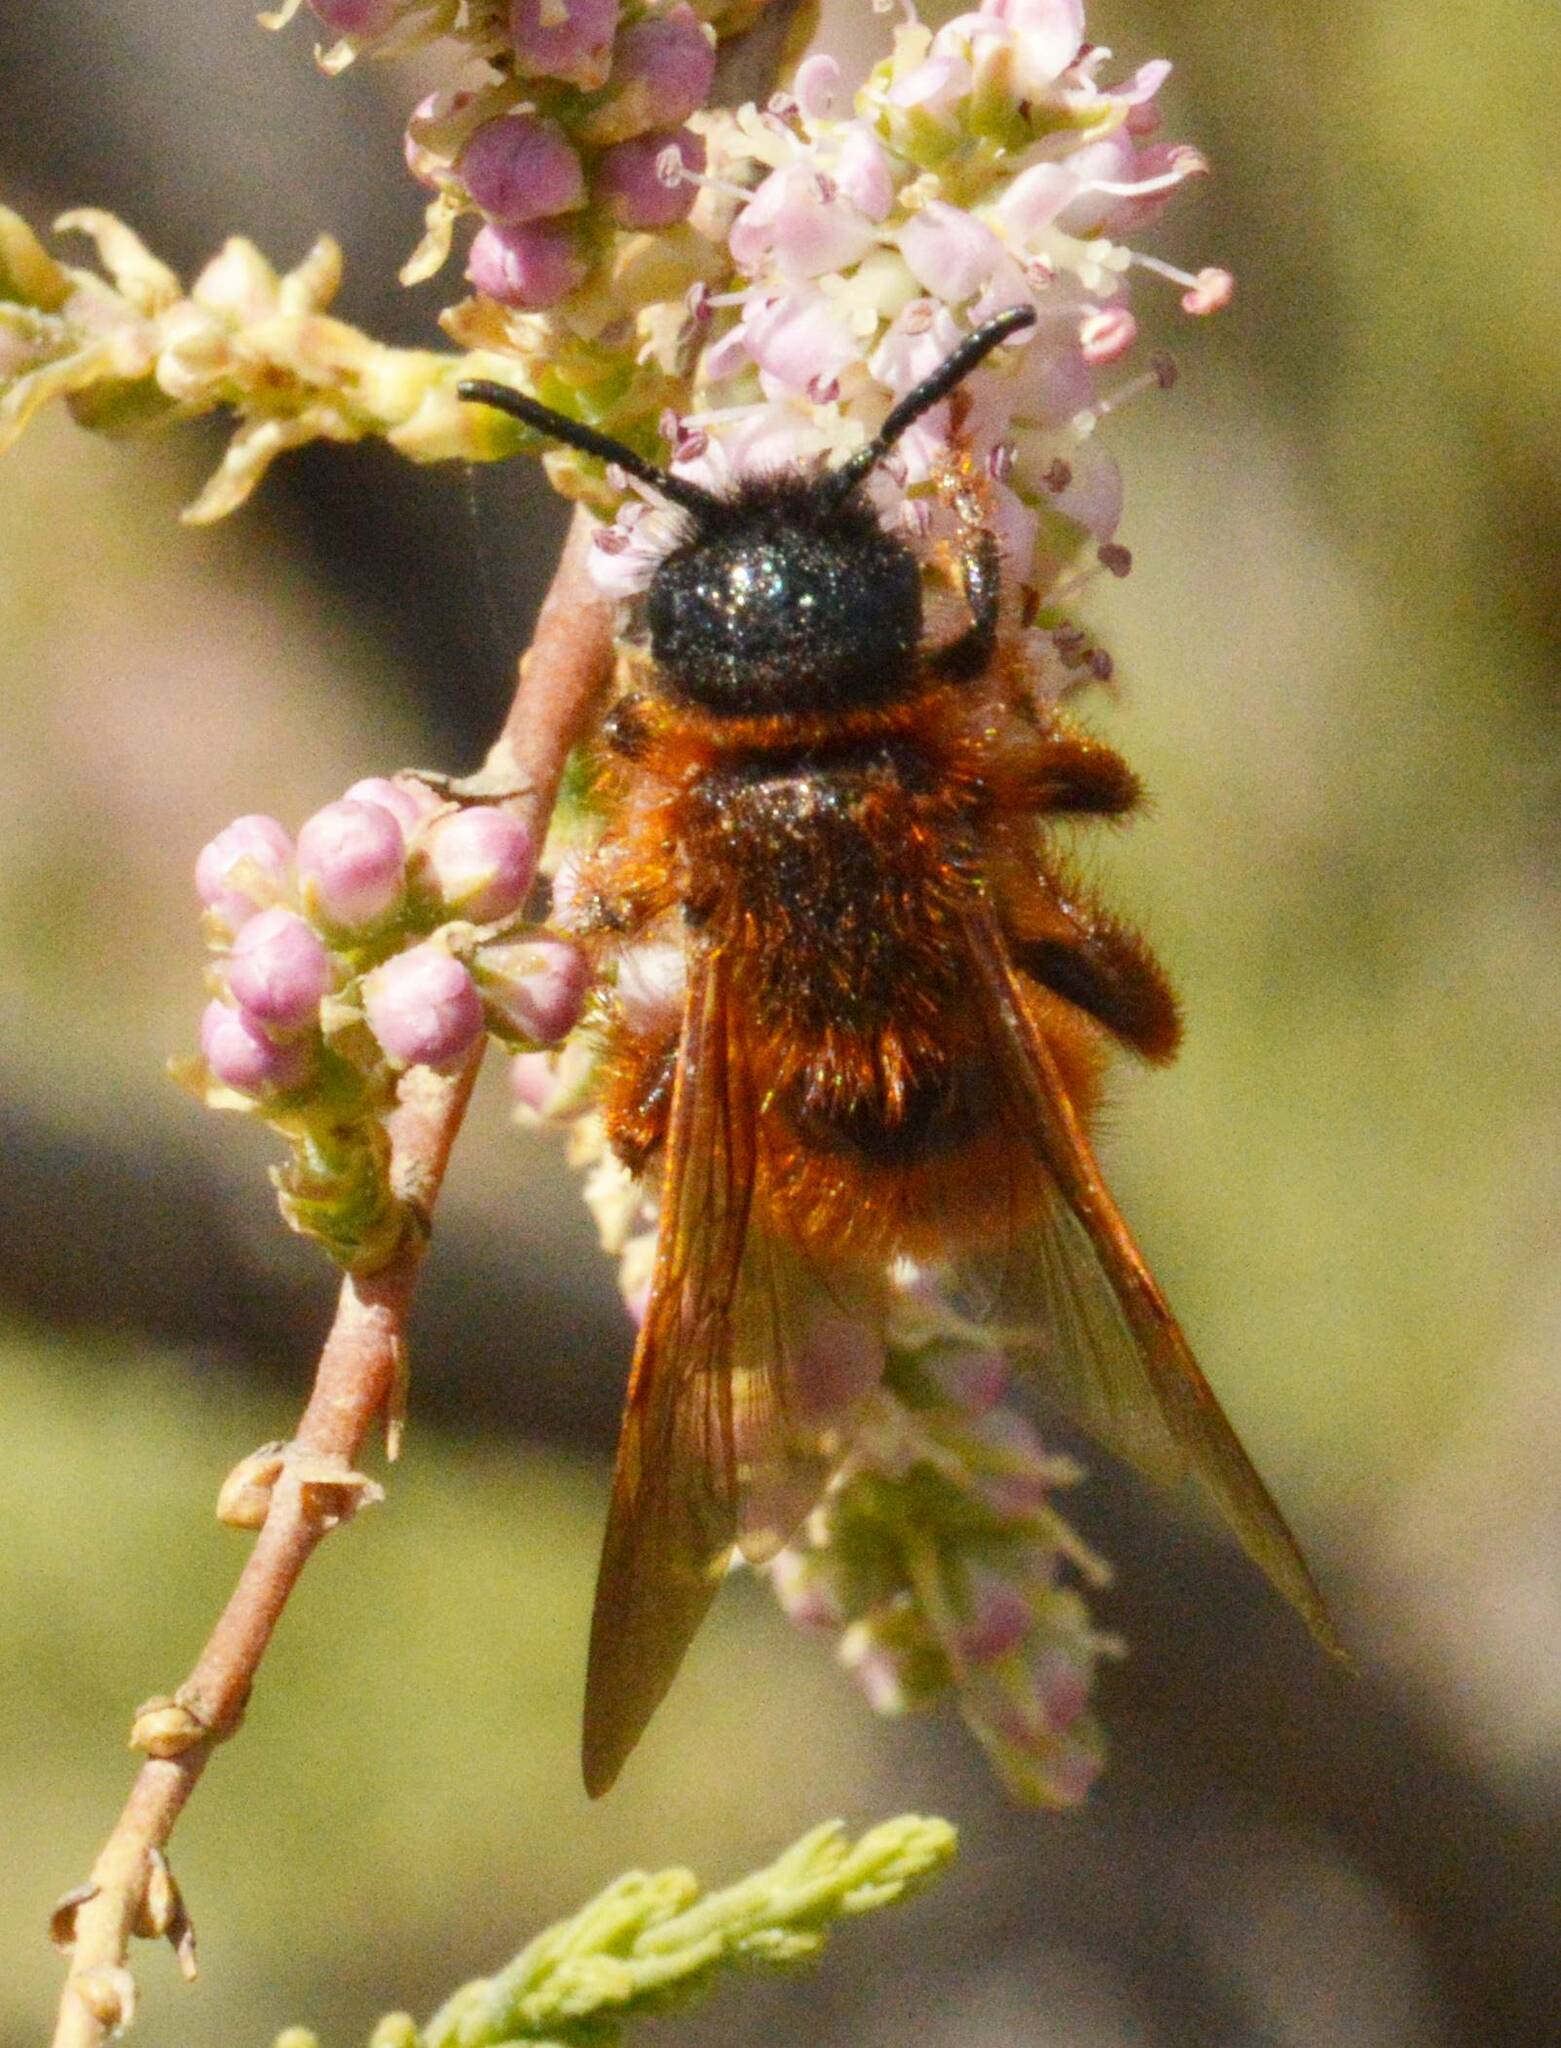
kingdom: Animalia
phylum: Arthropoda
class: Insecta
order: Hymenoptera
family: Scoliidae
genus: Dasyscolia
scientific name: Dasyscolia ciliata
